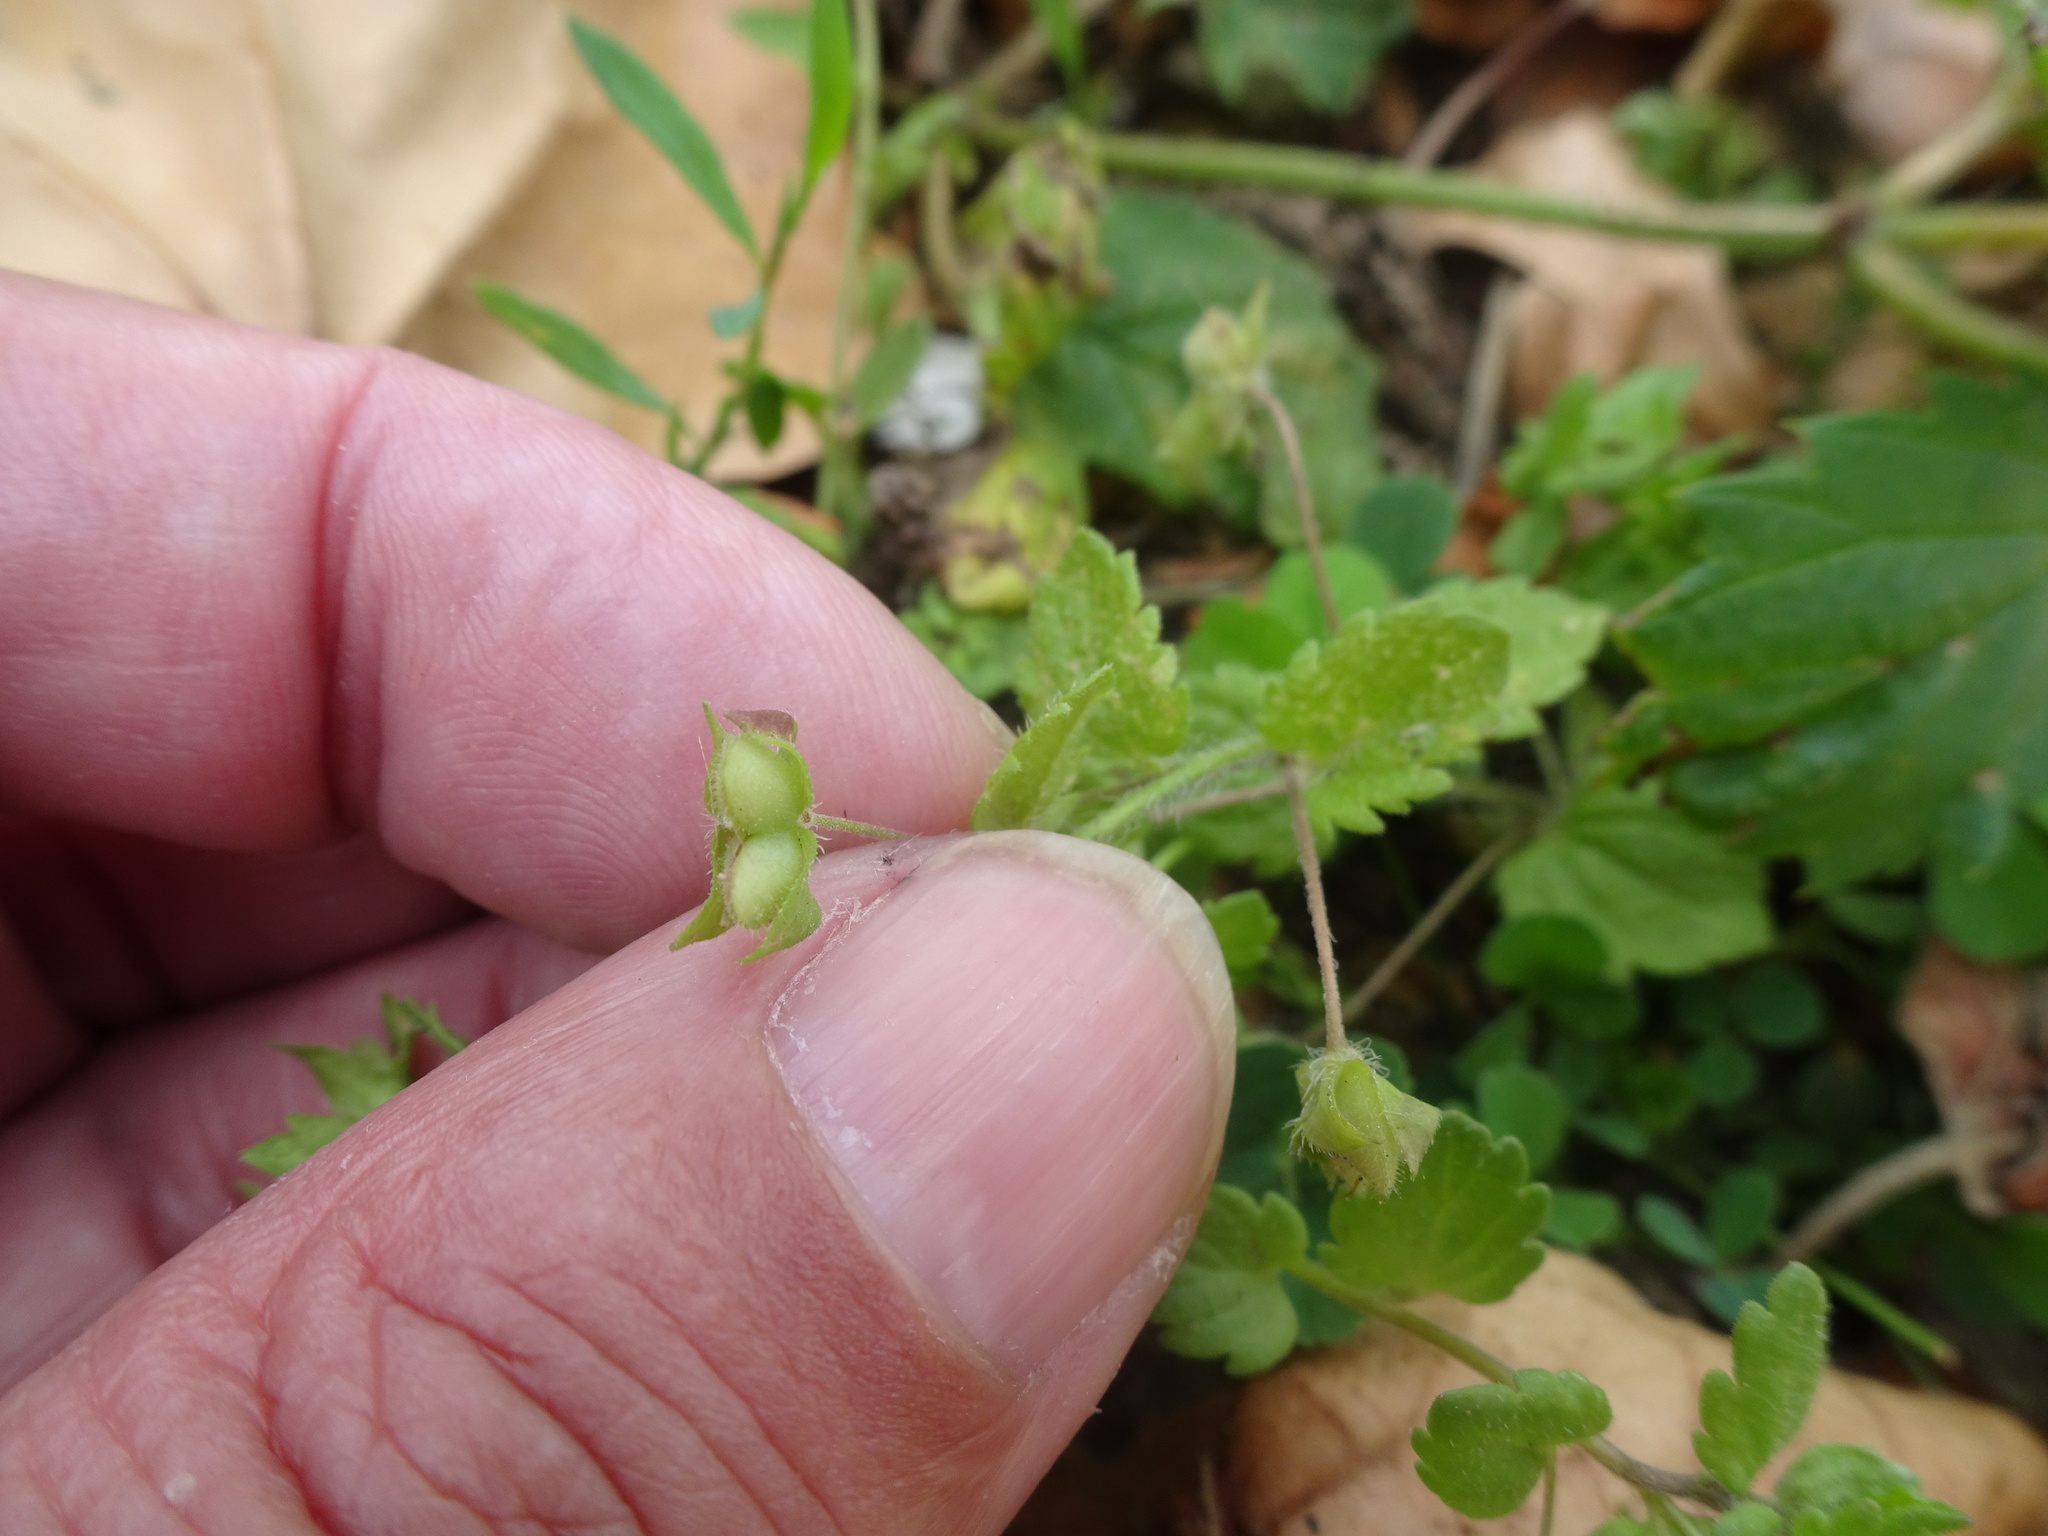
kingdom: Plantae
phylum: Tracheophyta
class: Magnoliopsida
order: Lamiales
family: Plantaginaceae
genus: Veronica
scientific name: Veronica persica
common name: Common field-speedwell
